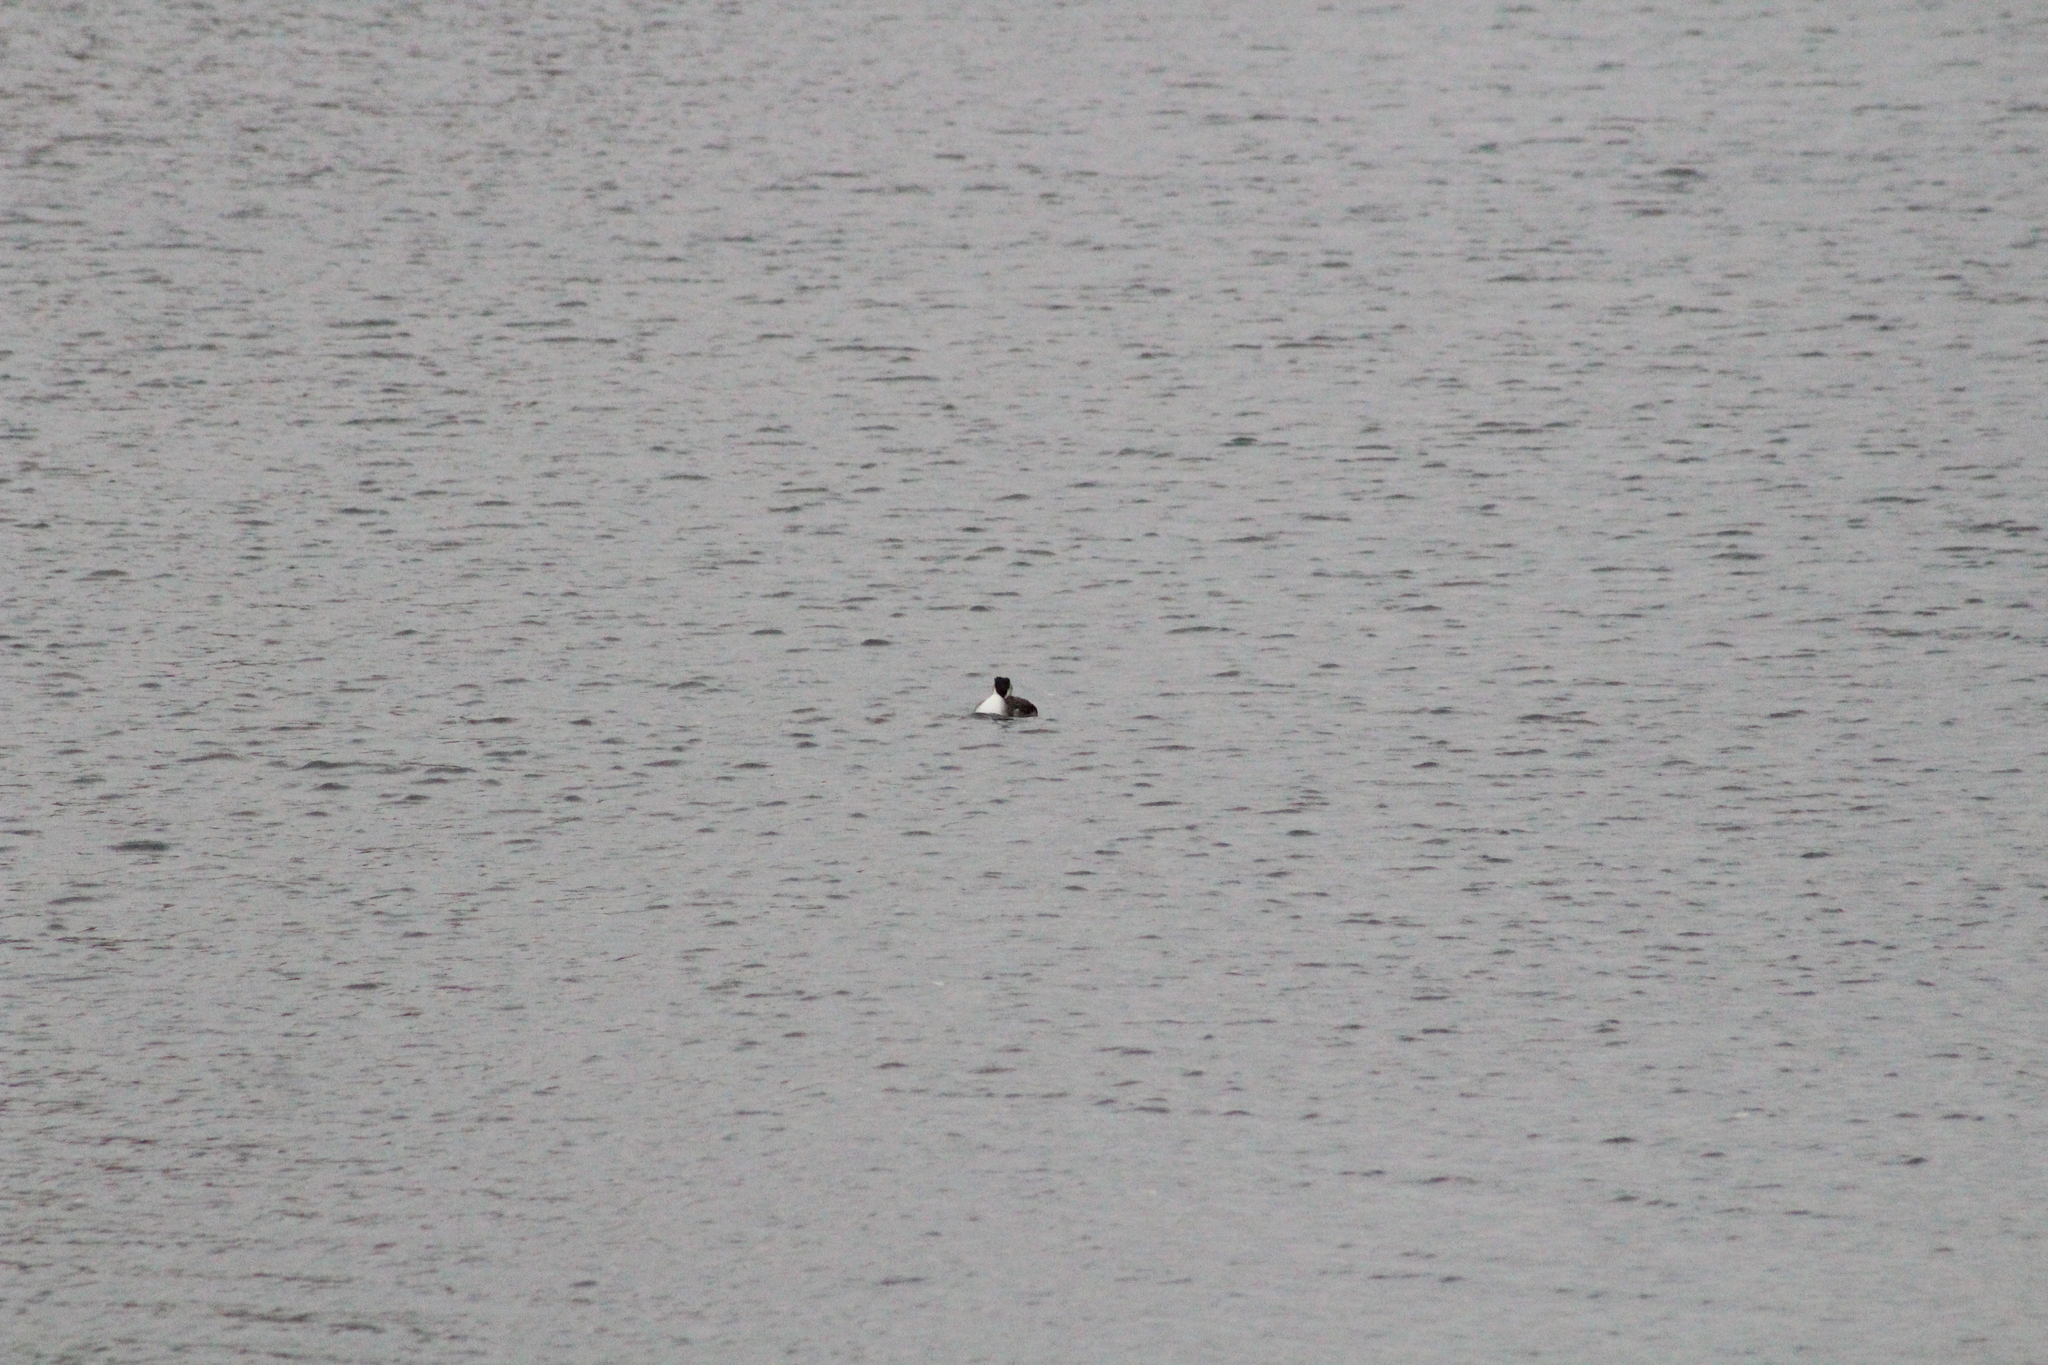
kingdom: Animalia
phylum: Chordata
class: Aves
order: Podicipediformes
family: Podicipedidae
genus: Podiceps
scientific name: Podiceps cristatus
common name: Great crested grebe
